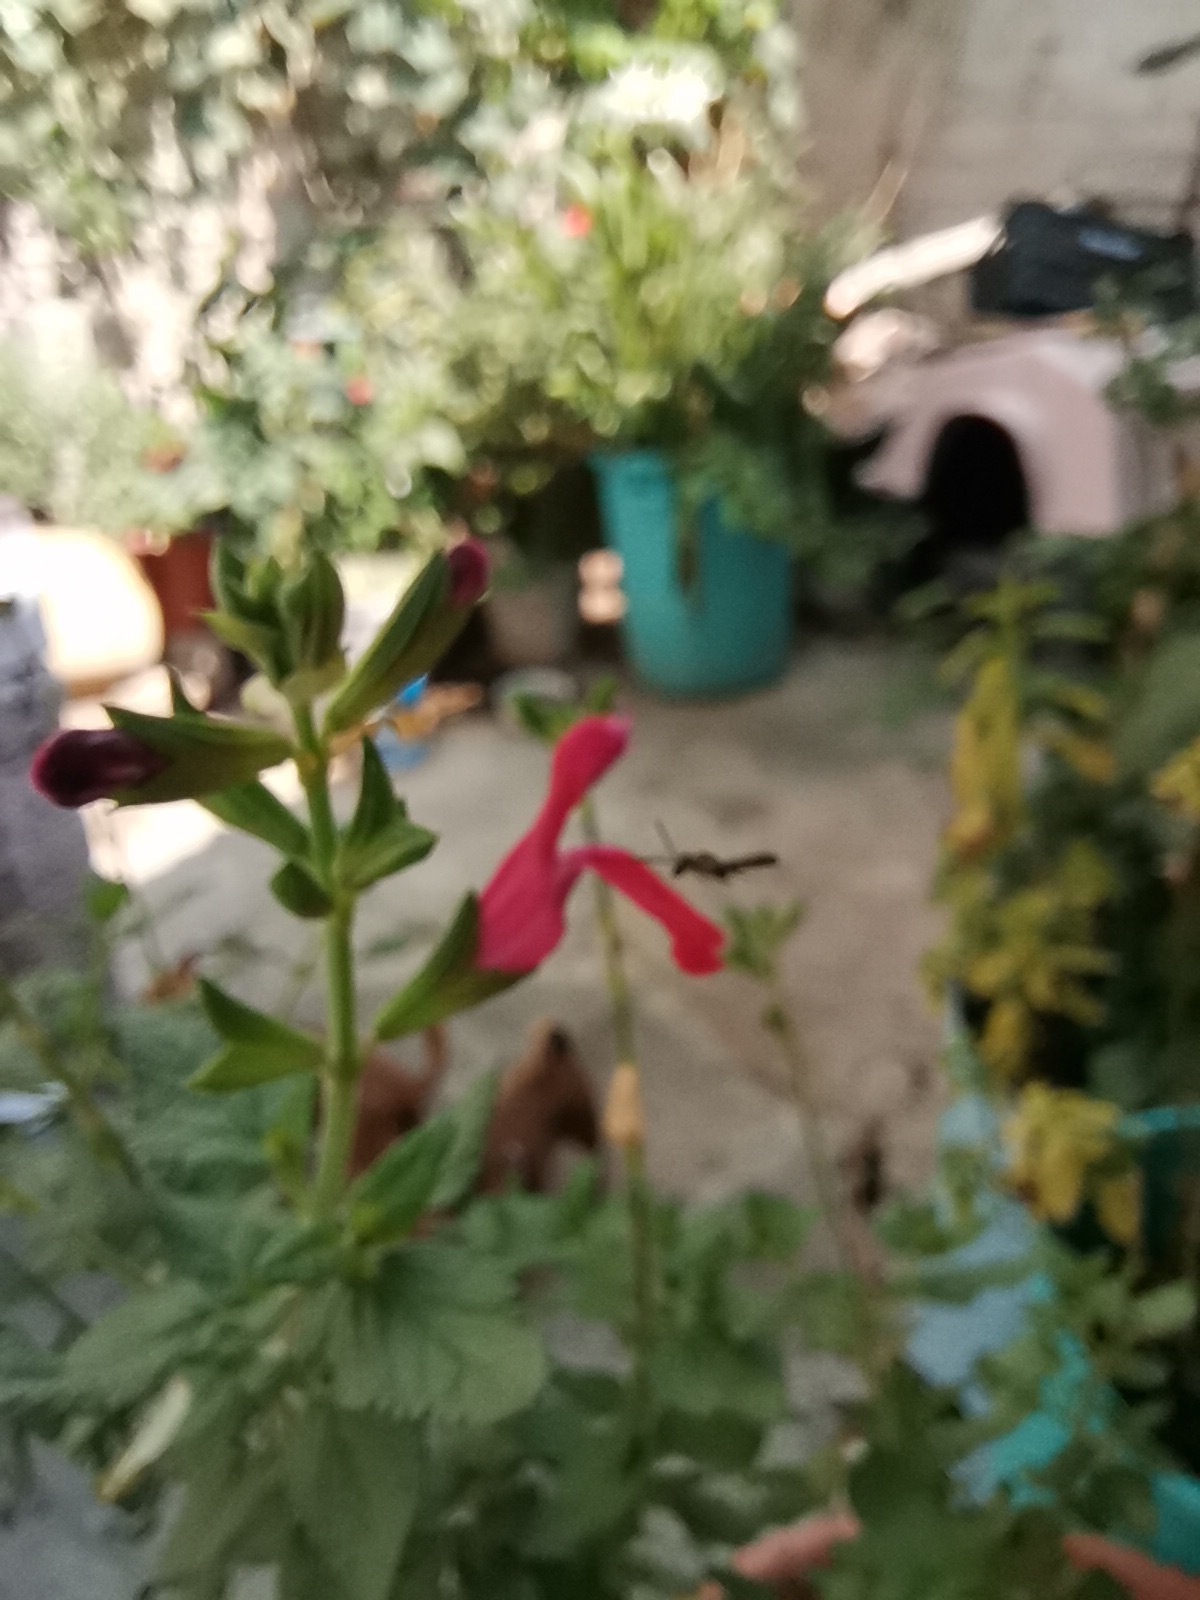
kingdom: Plantae
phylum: Tracheophyta
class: Magnoliopsida
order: Lamiales
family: Lamiaceae
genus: Salvia
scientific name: Salvia pulchella
